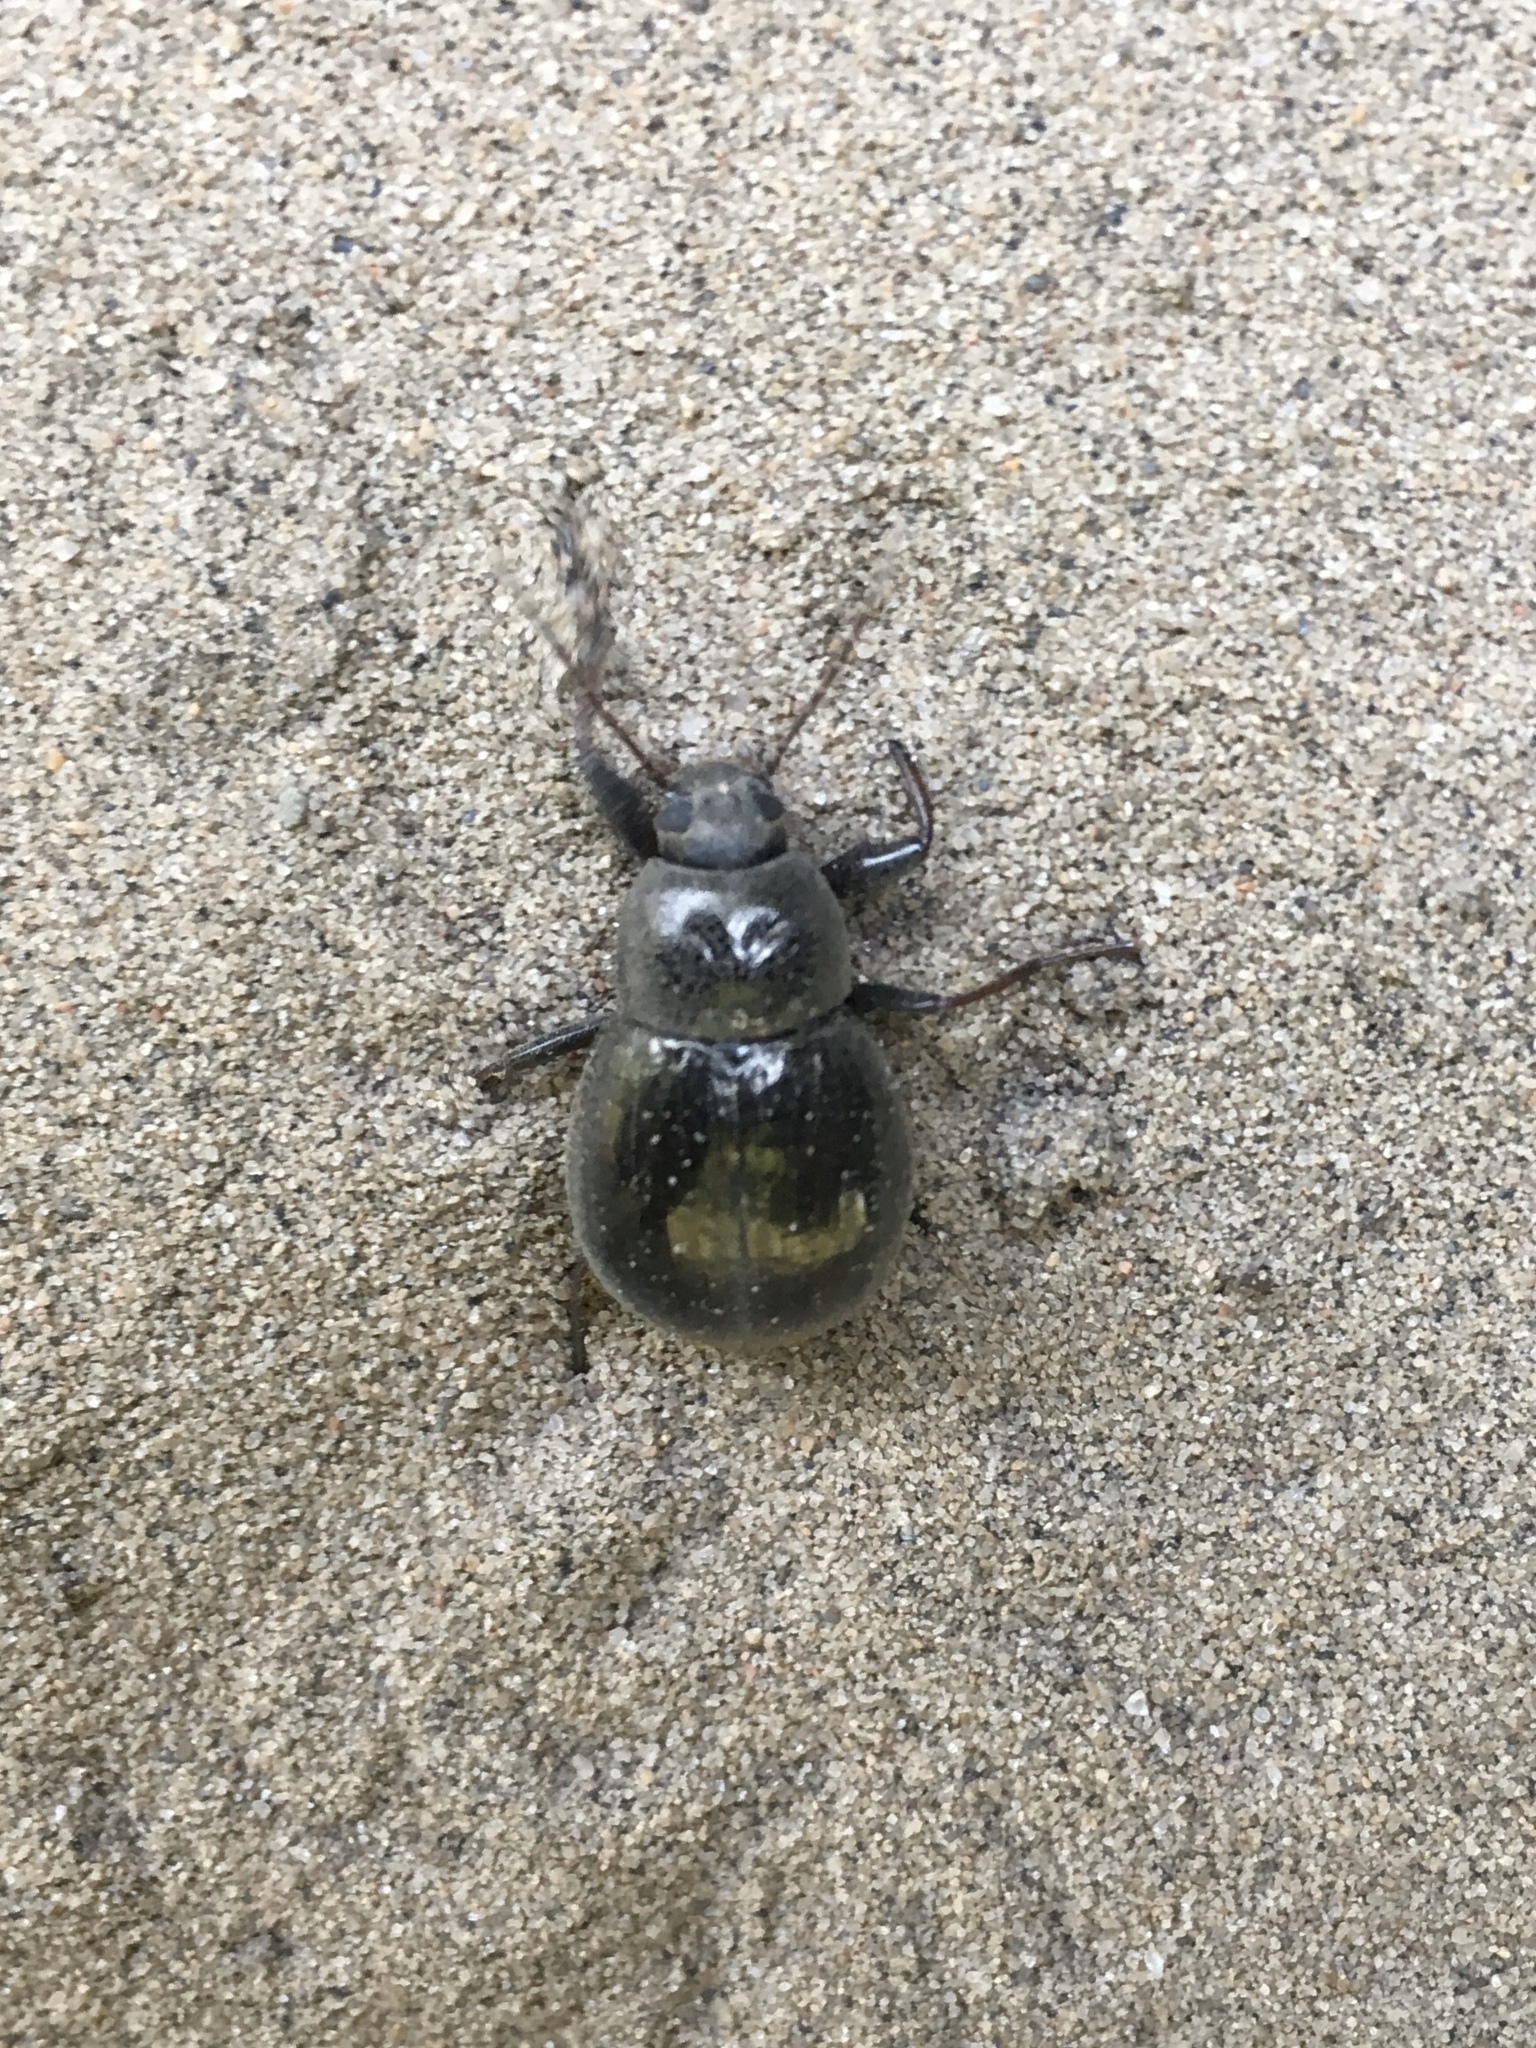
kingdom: Animalia
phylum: Arthropoda
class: Insecta
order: Coleoptera
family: Tenebrionidae
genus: Meracantha
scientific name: Meracantha contracta
